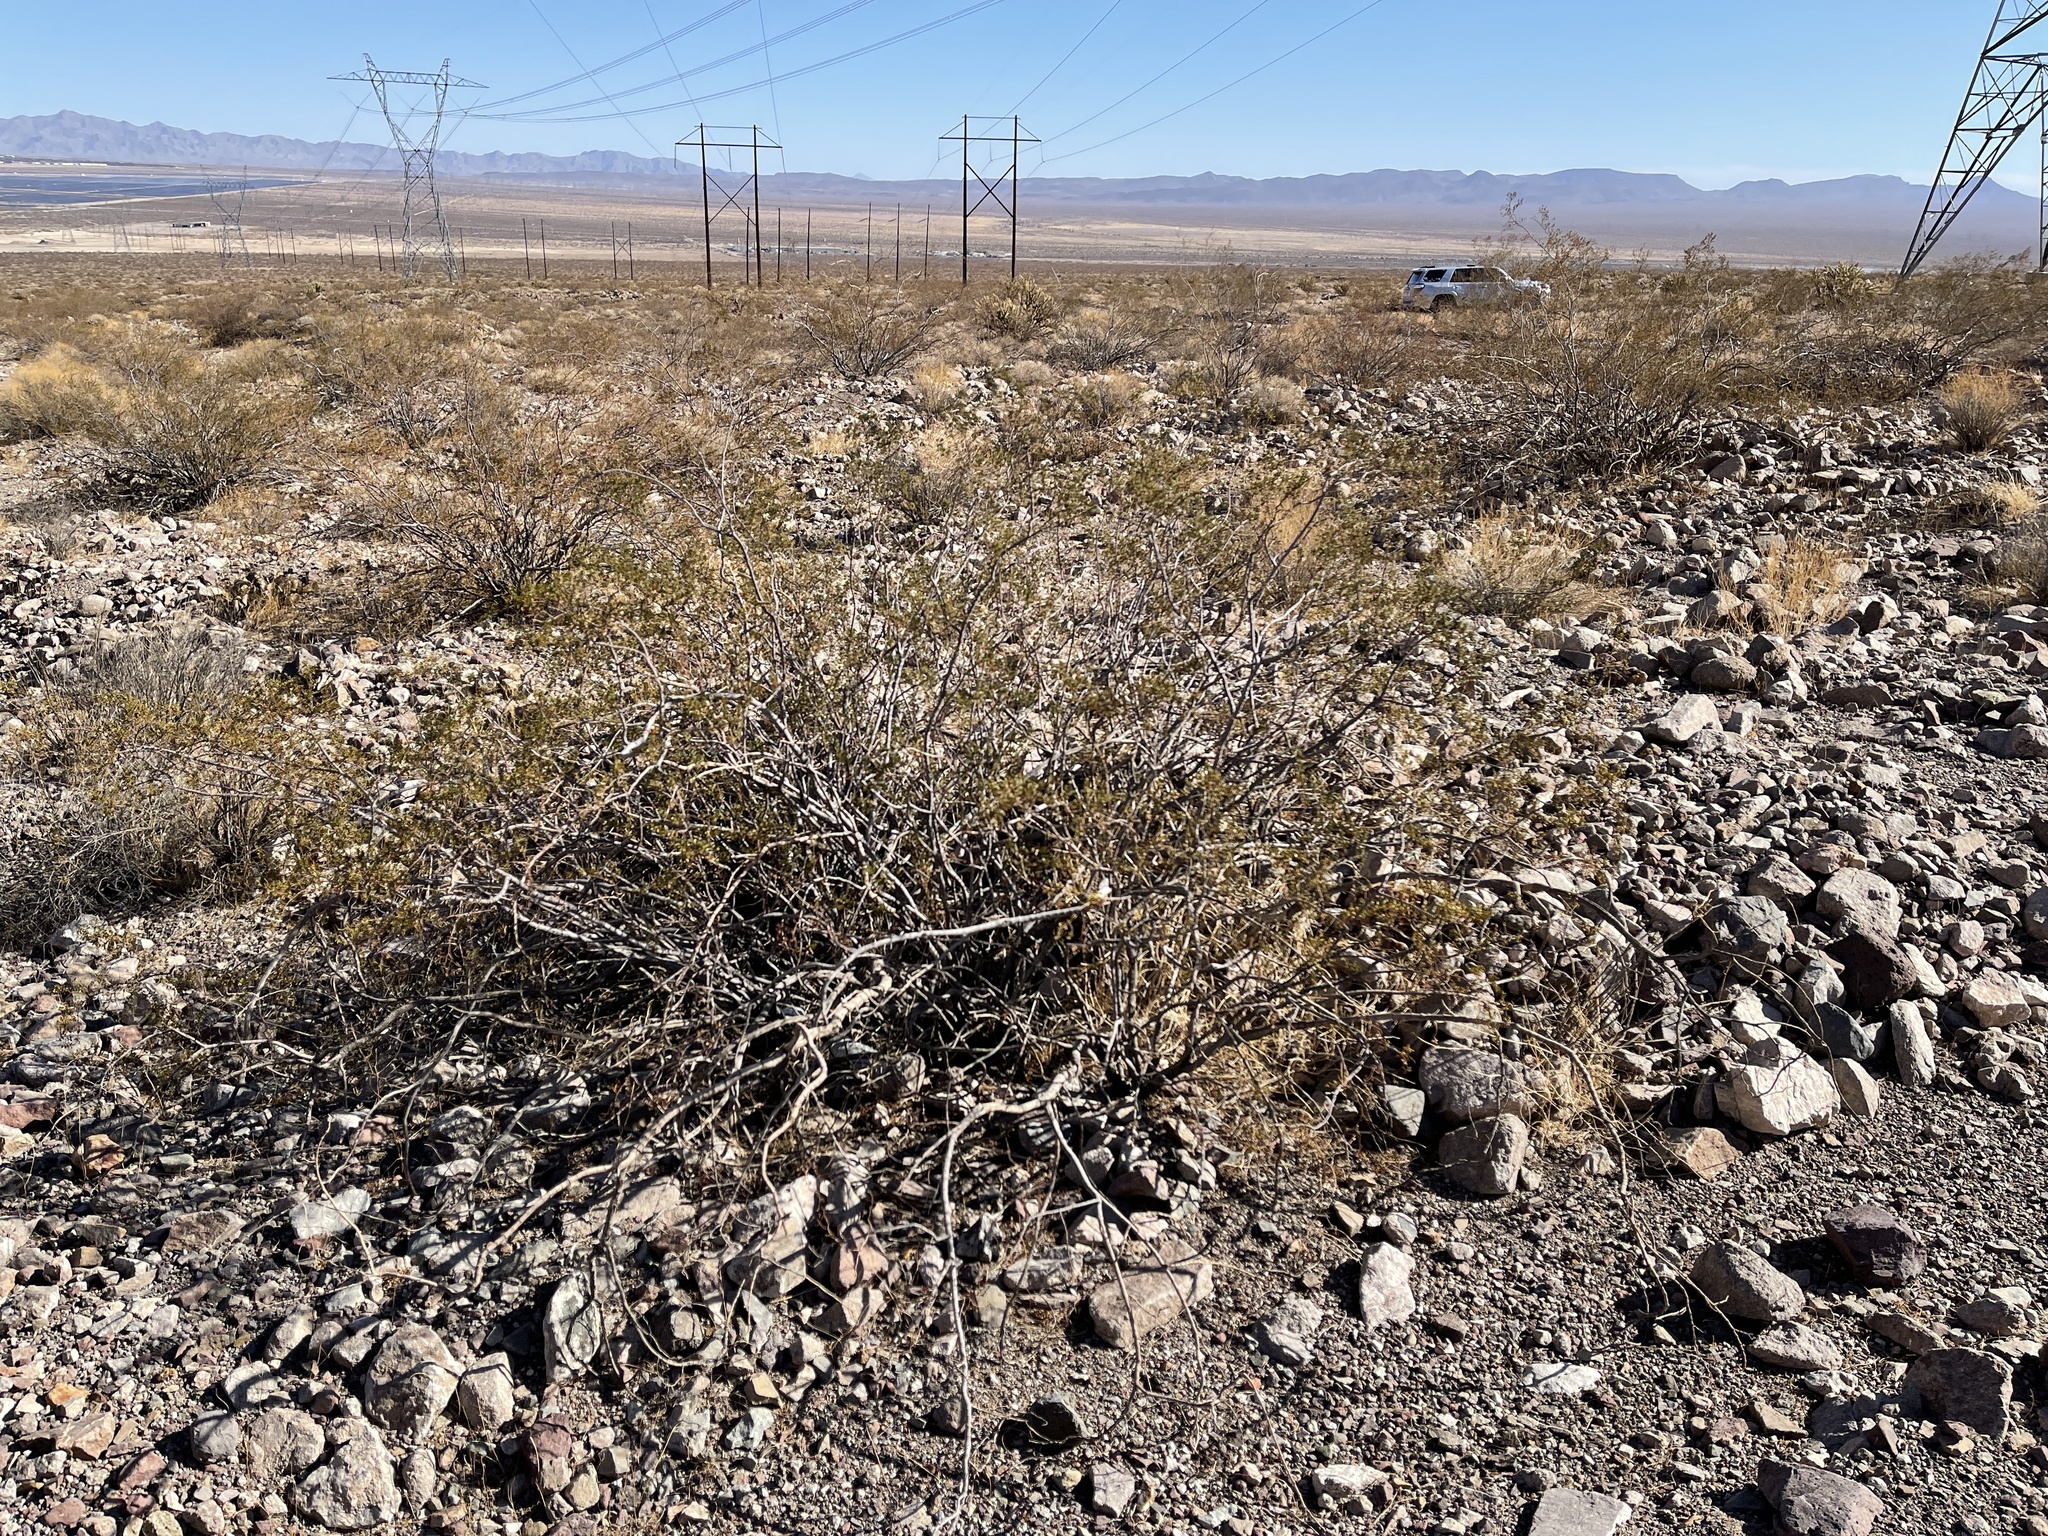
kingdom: Plantae
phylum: Tracheophyta
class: Magnoliopsida
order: Zygophyllales
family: Zygophyllaceae
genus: Larrea
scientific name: Larrea tridentata
